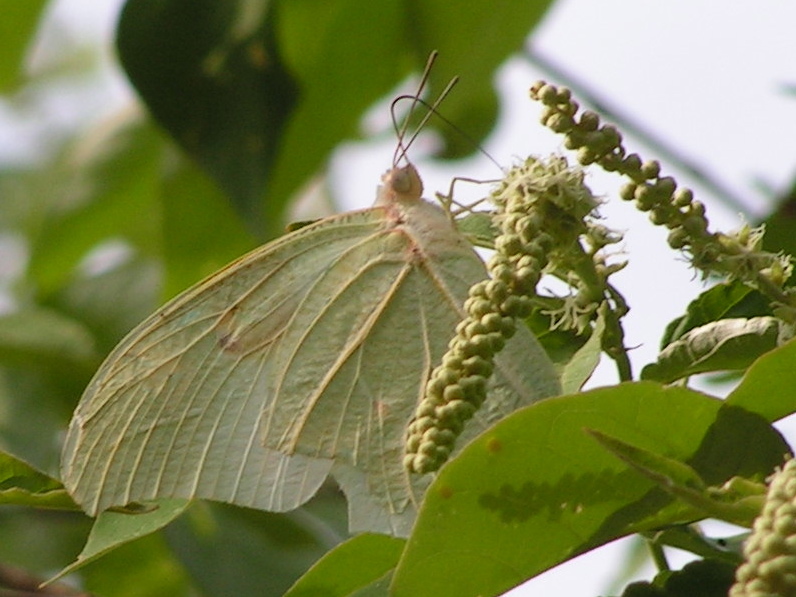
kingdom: Animalia
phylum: Arthropoda
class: Insecta
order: Lepidoptera
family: Pieridae
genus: Anteos
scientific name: Anteos clorinde
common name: White angled sulphur
